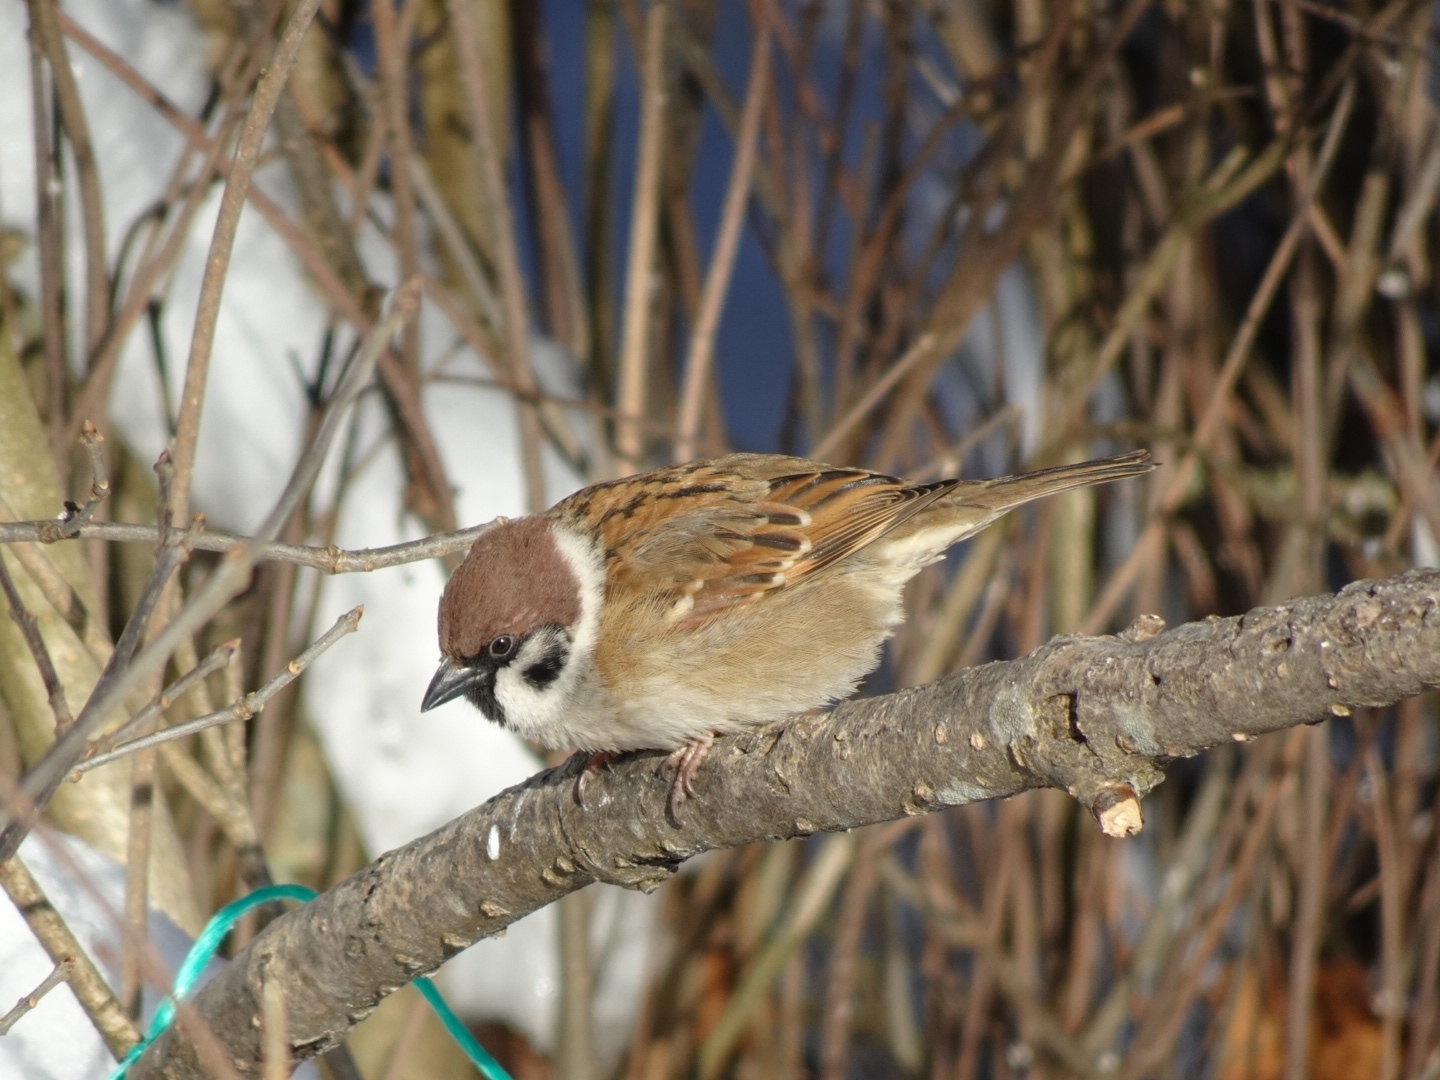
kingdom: Animalia
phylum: Chordata
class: Aves
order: Passeriformes
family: Passeridae
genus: Passer
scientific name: Passer montanus
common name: Eurasian tree sparrow
